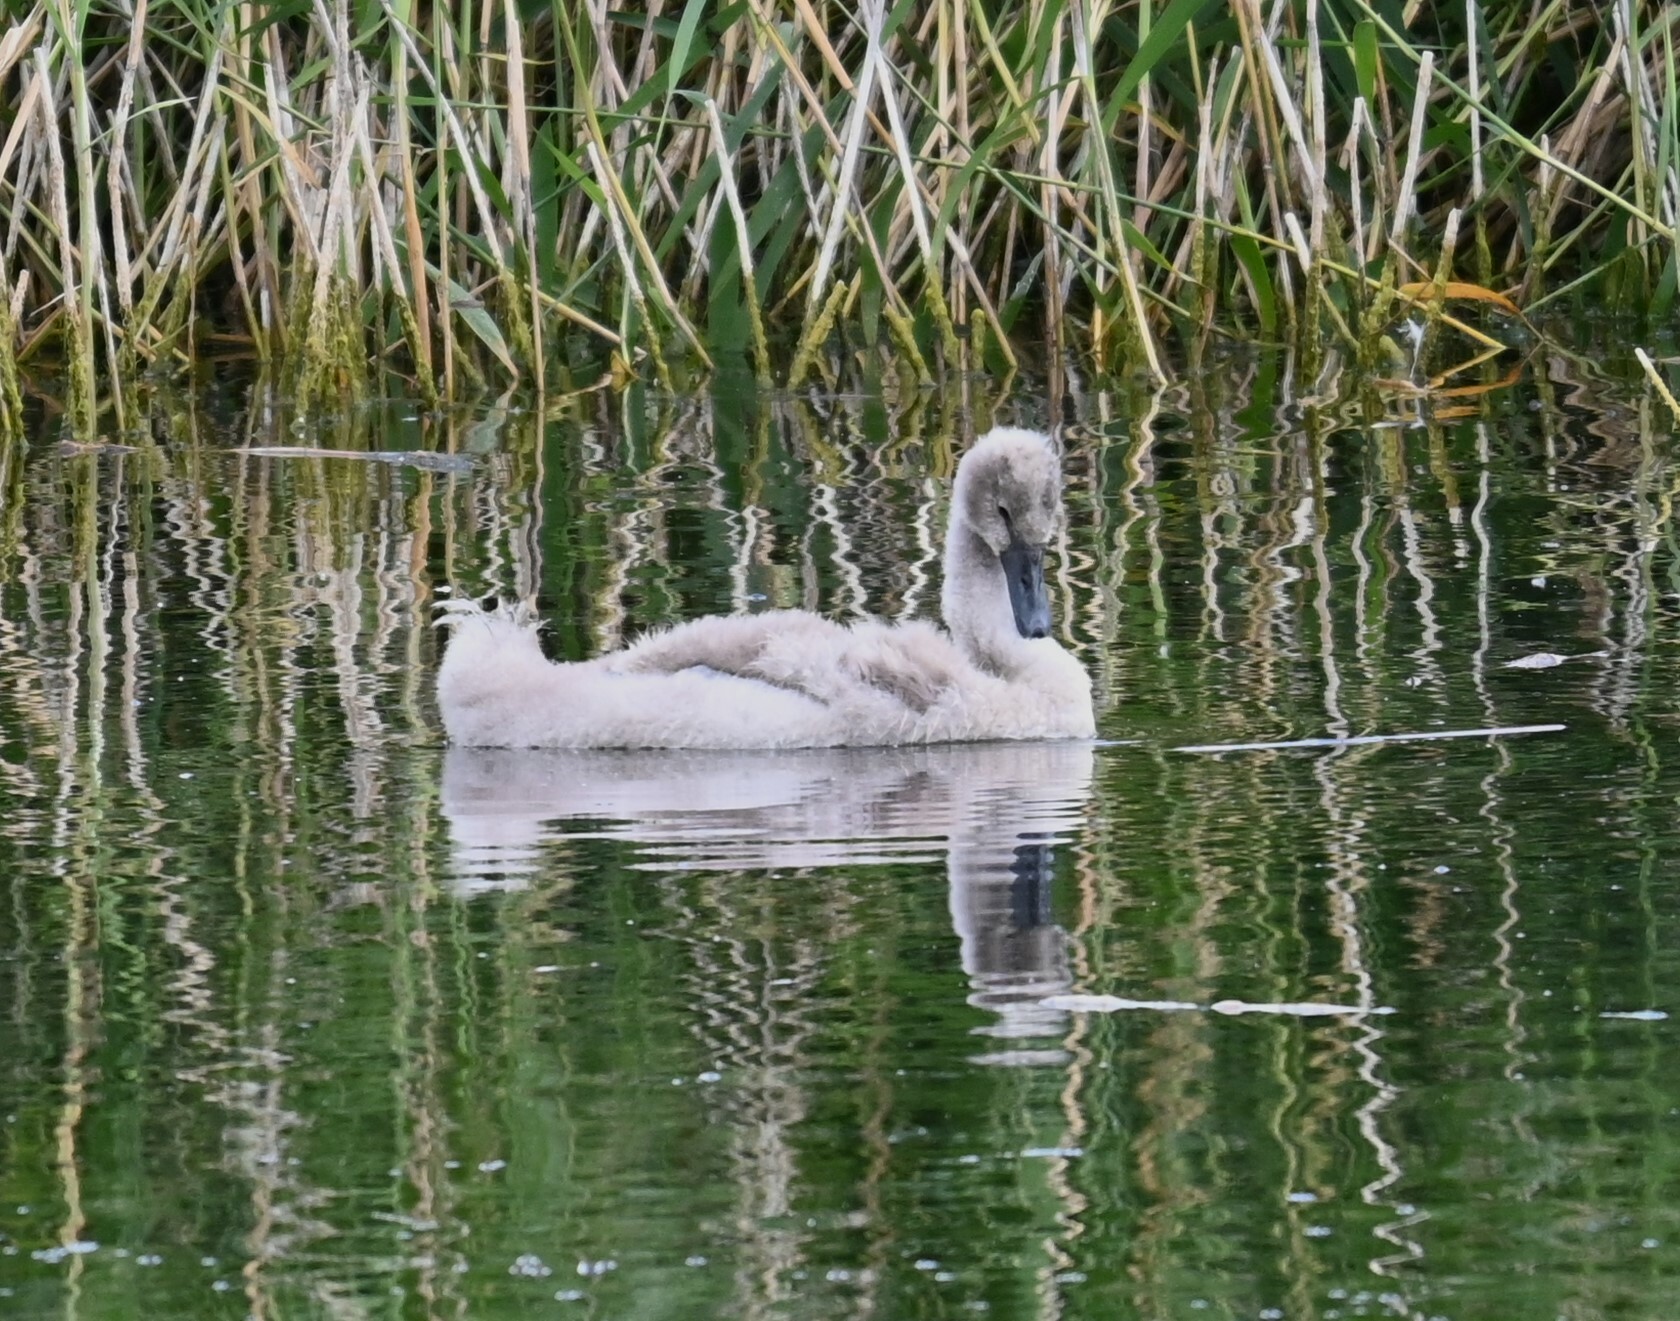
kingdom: Animalia
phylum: Chordata
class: Aves
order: Anseriformes
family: Anatidae
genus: Cygnus
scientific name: Cygnus olor
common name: Mute swan
